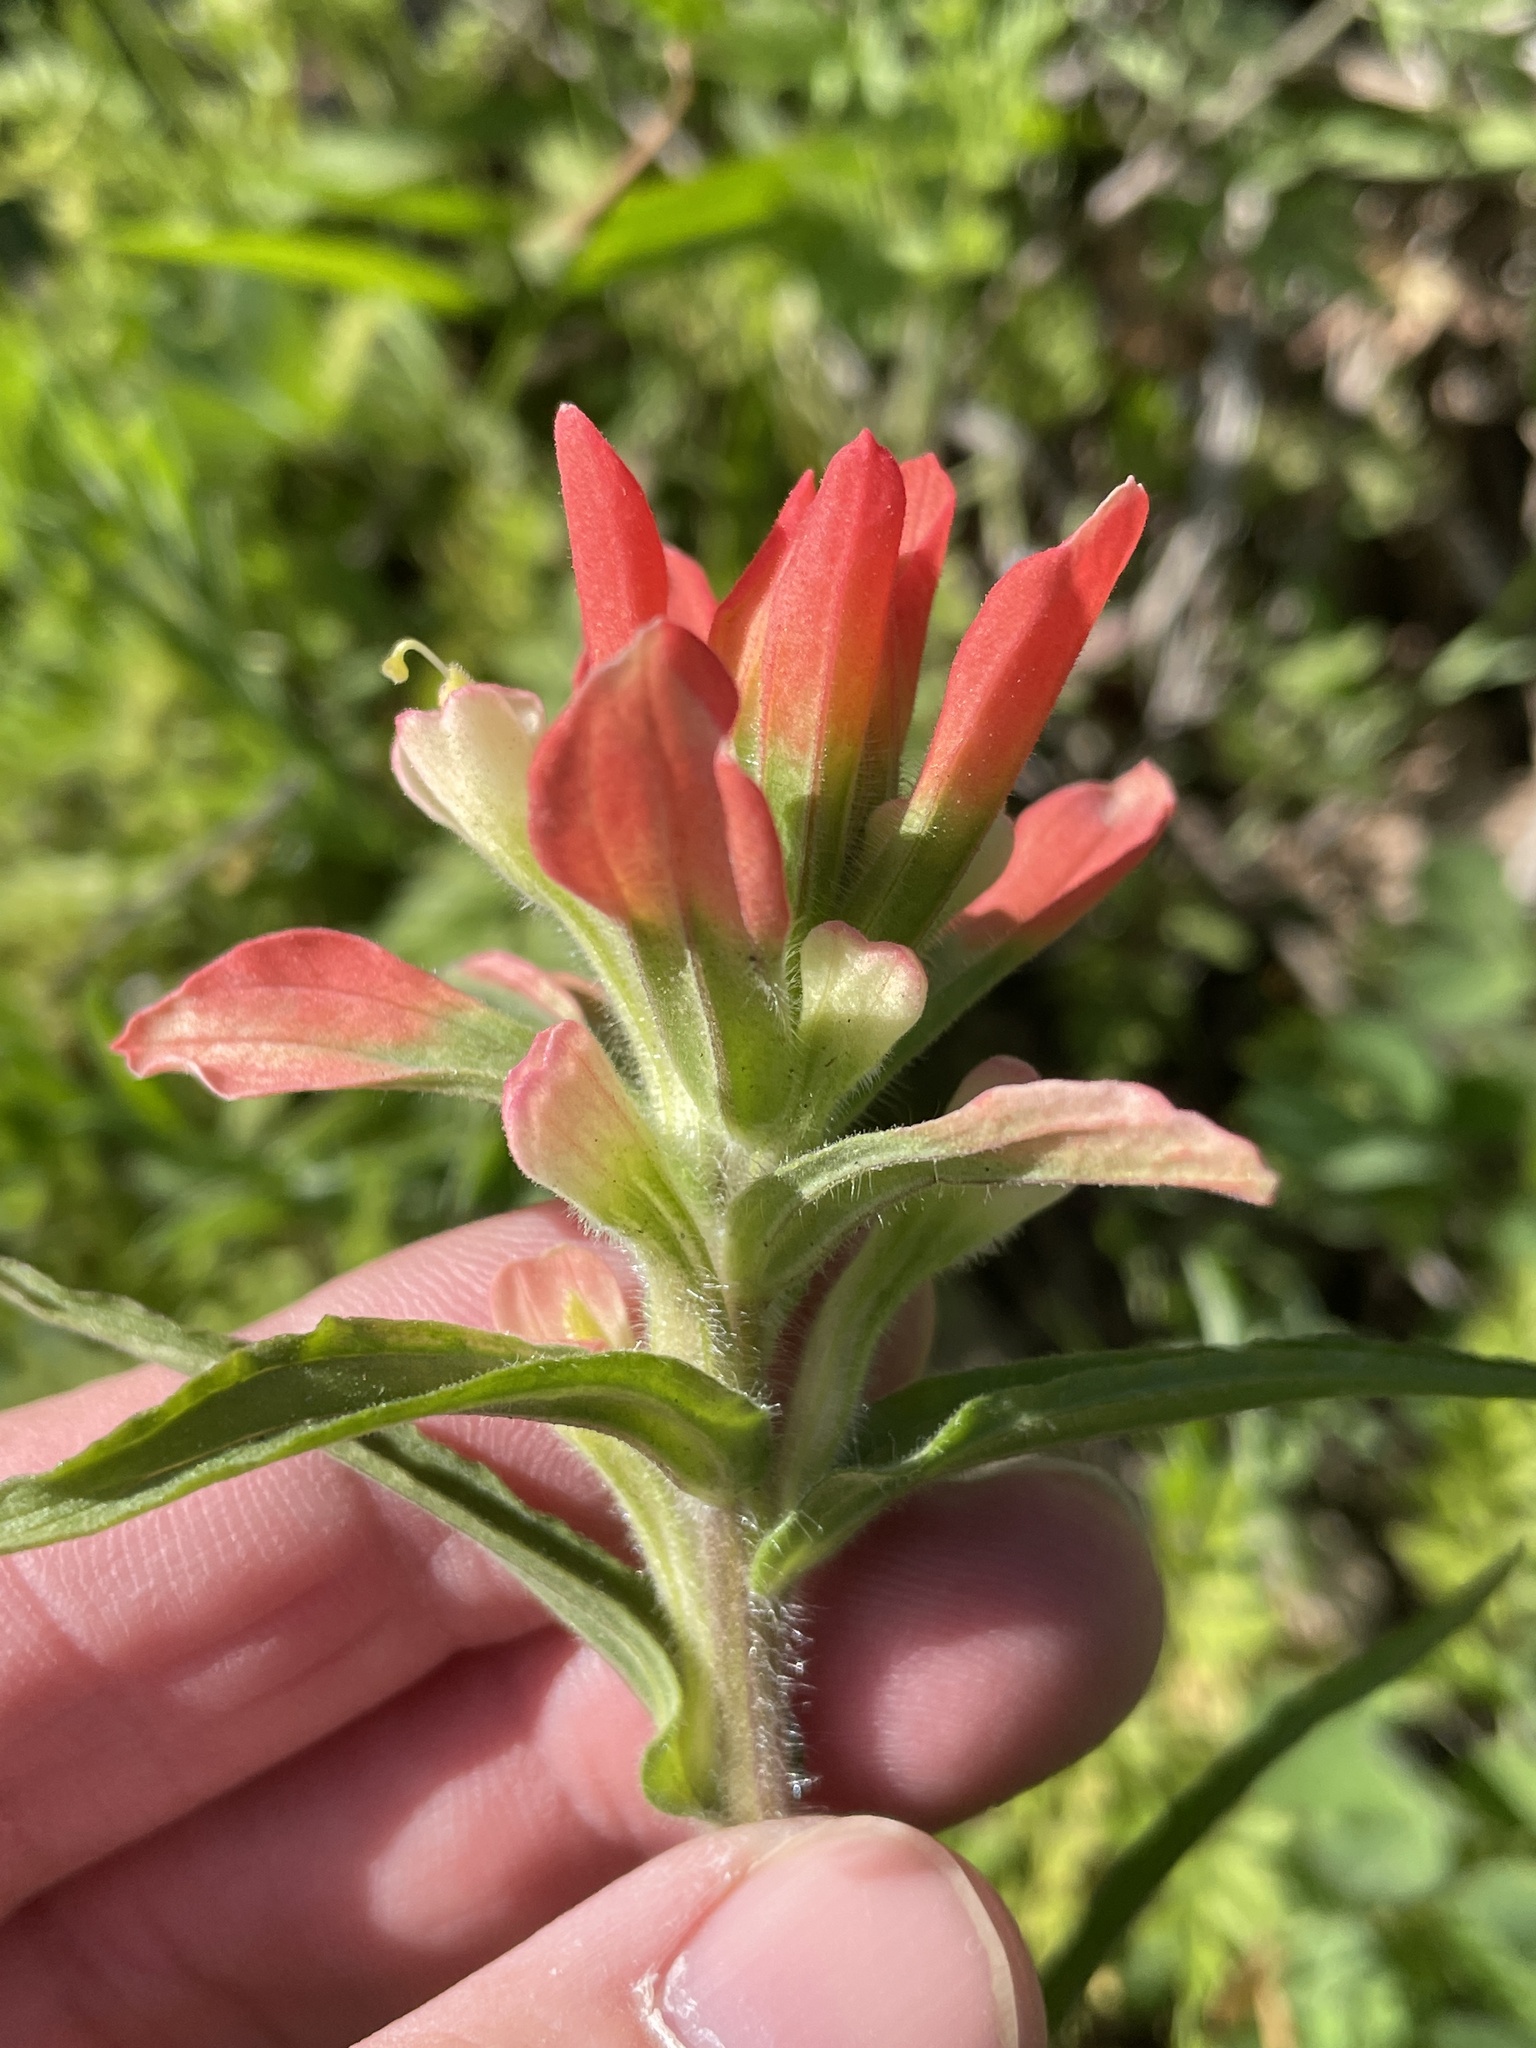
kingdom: Plantae
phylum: Tracheophyta
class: Magnoliopsida
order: Lamiales
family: Orobanchaceae
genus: Castilleja
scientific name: Castilleja indivisa
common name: Texas paintbrush
